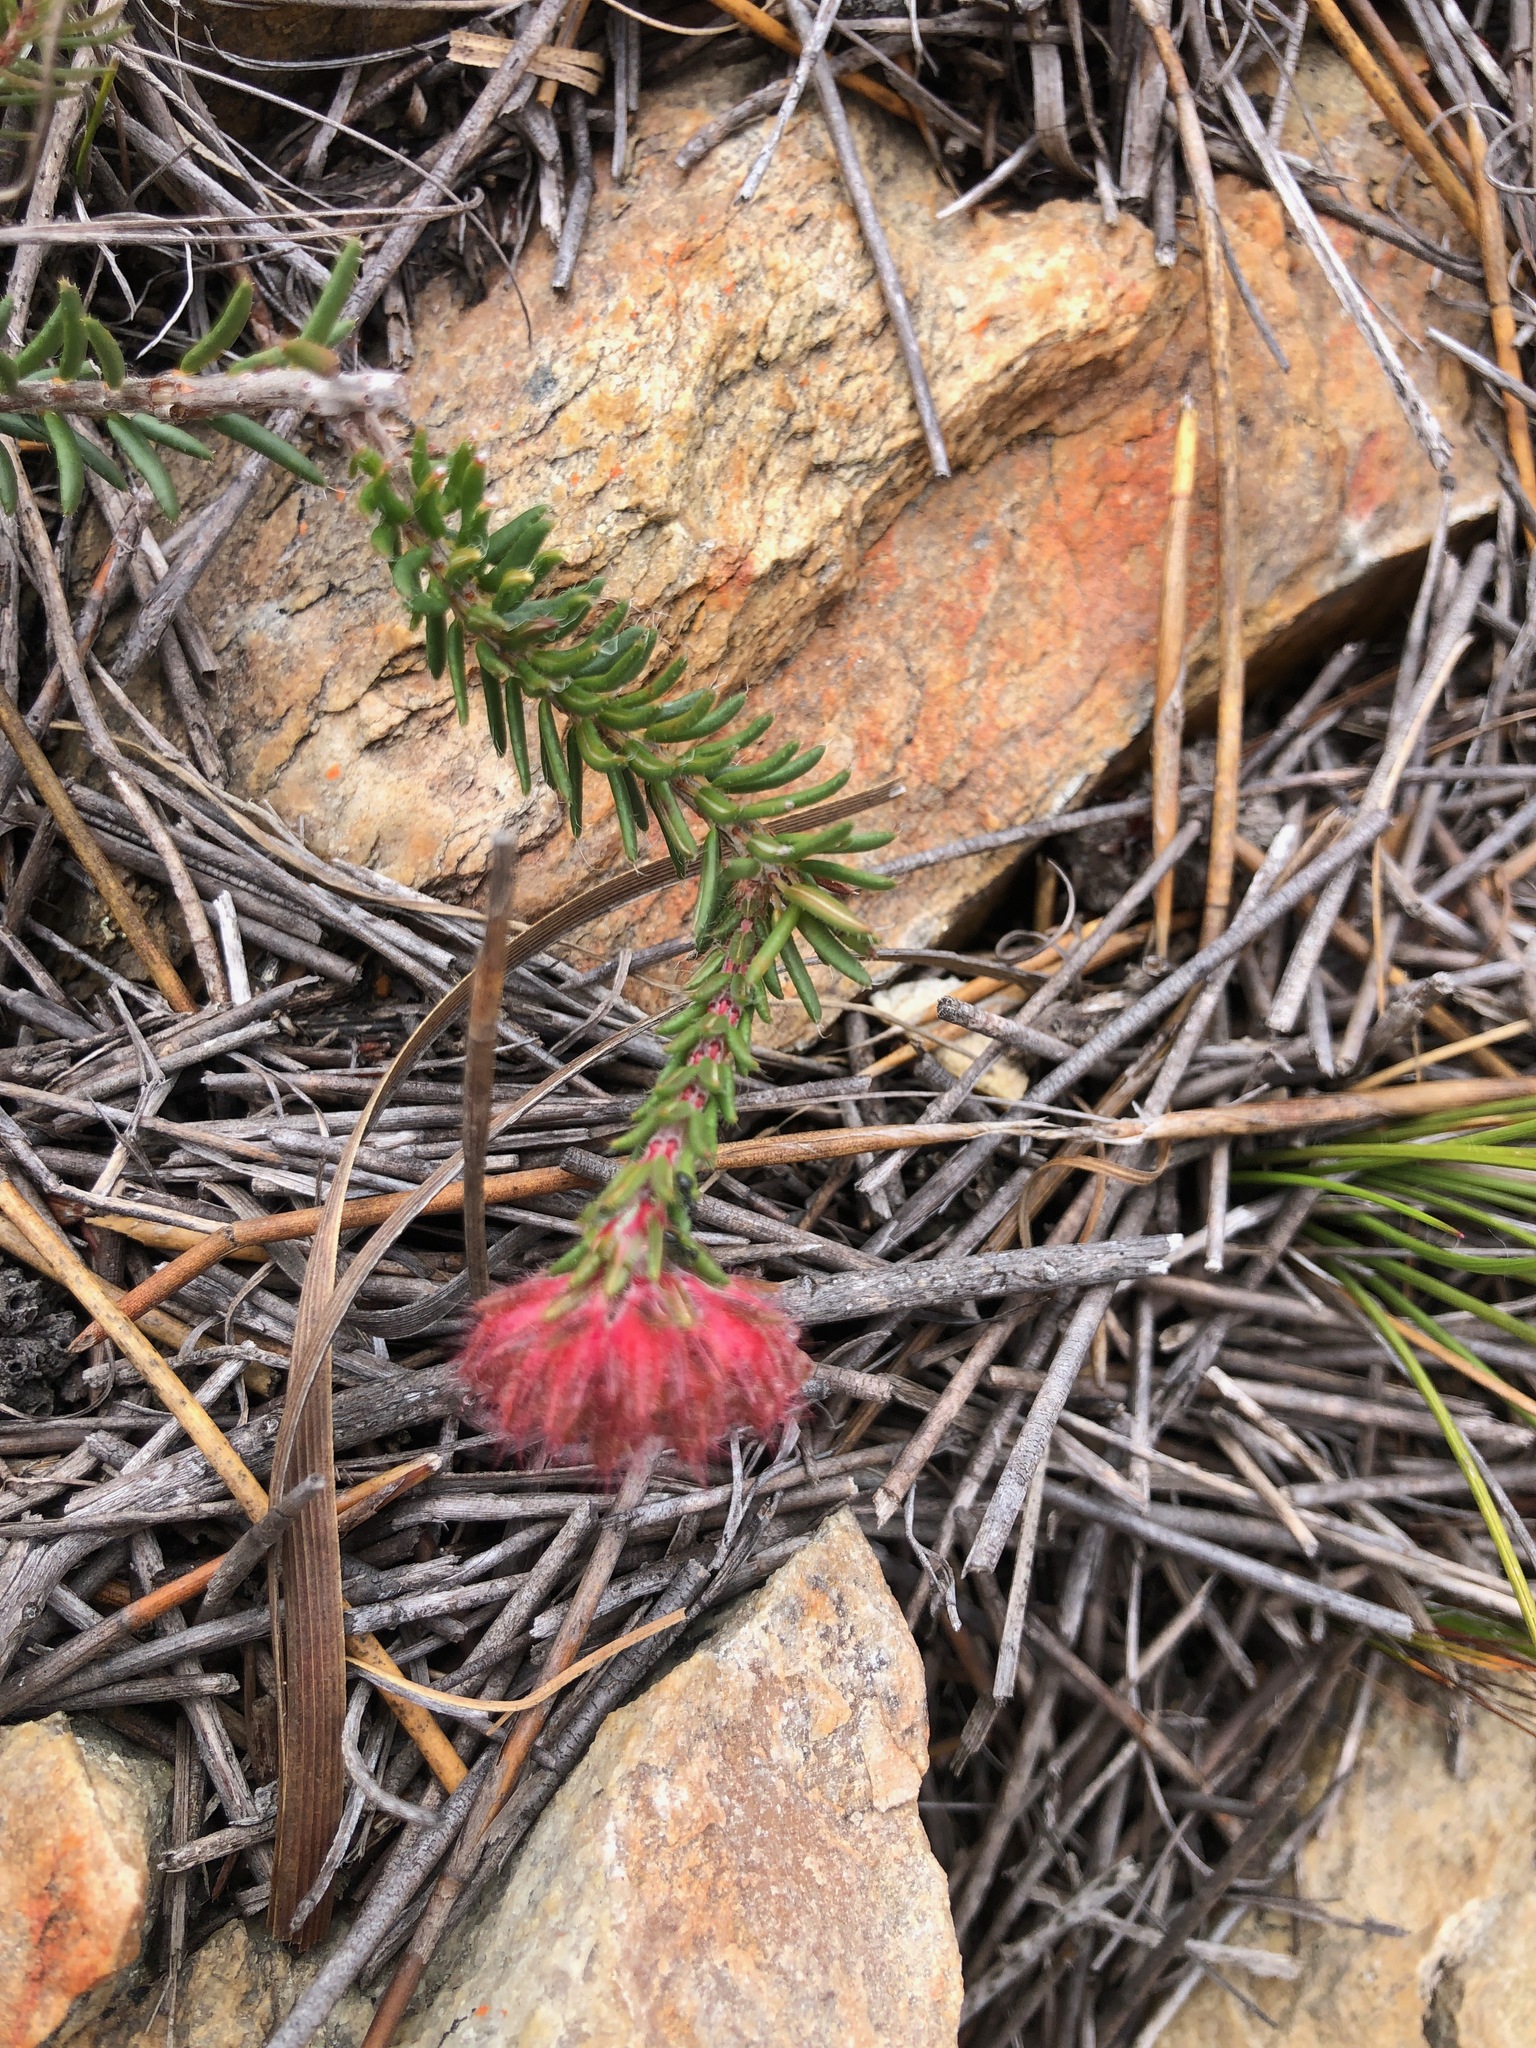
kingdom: Plantae
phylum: Tracheophyta
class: Magnoliopsida
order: Ericales
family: Ericaceae
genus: Erica
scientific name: Erica cerinthoides
